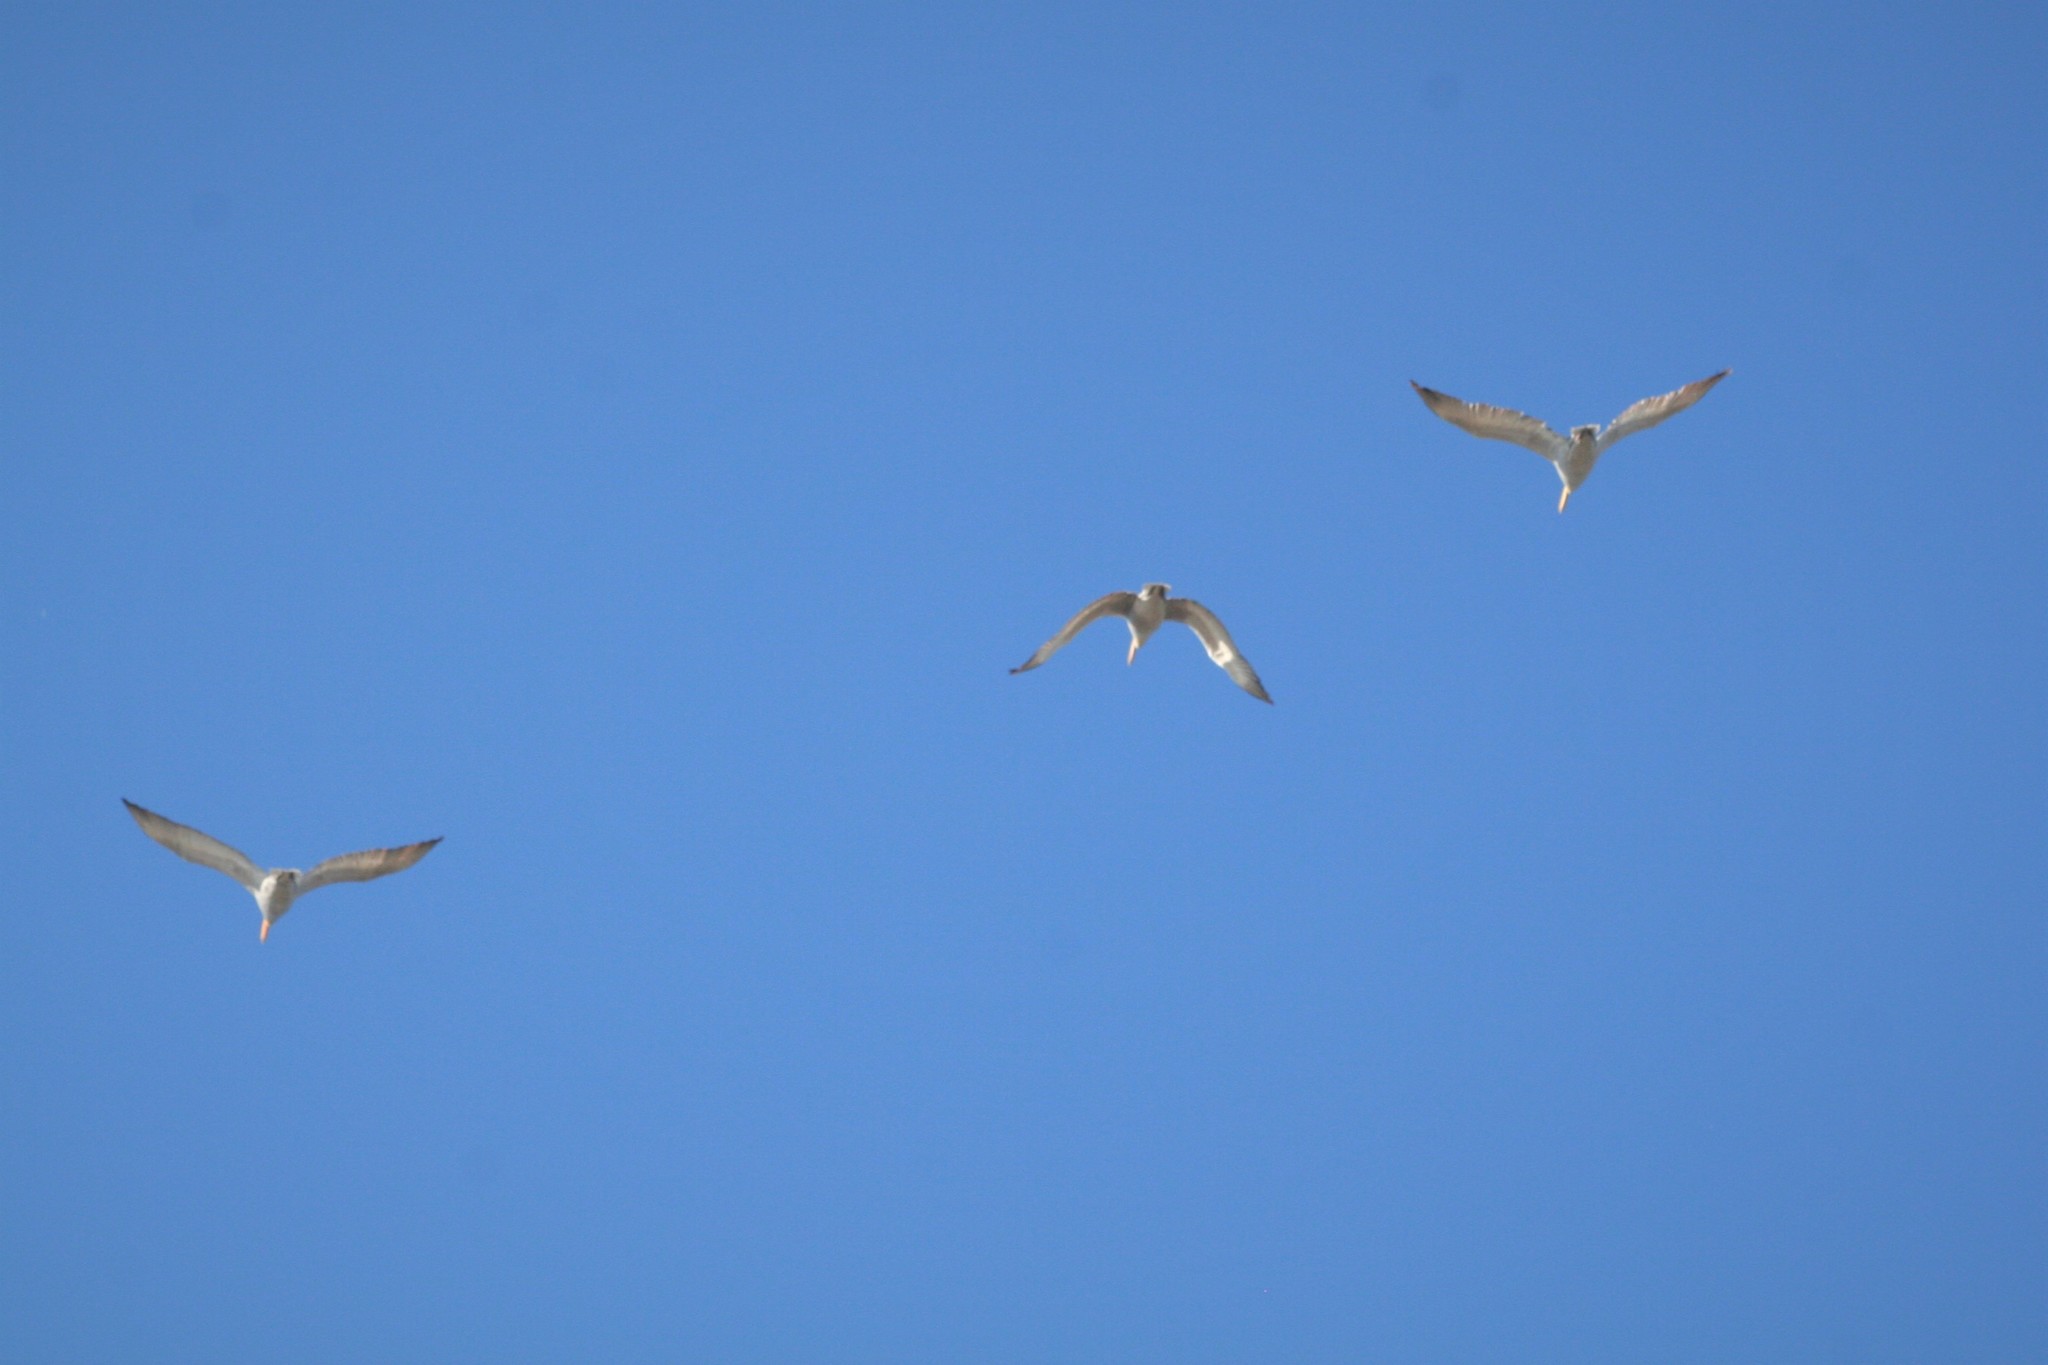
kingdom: Animalia
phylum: Chordata
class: Aves
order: Pelecaniformes
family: Pelecanidae
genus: Pelecanus
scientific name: Pelecanus crispus
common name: Dalmatian pelican
